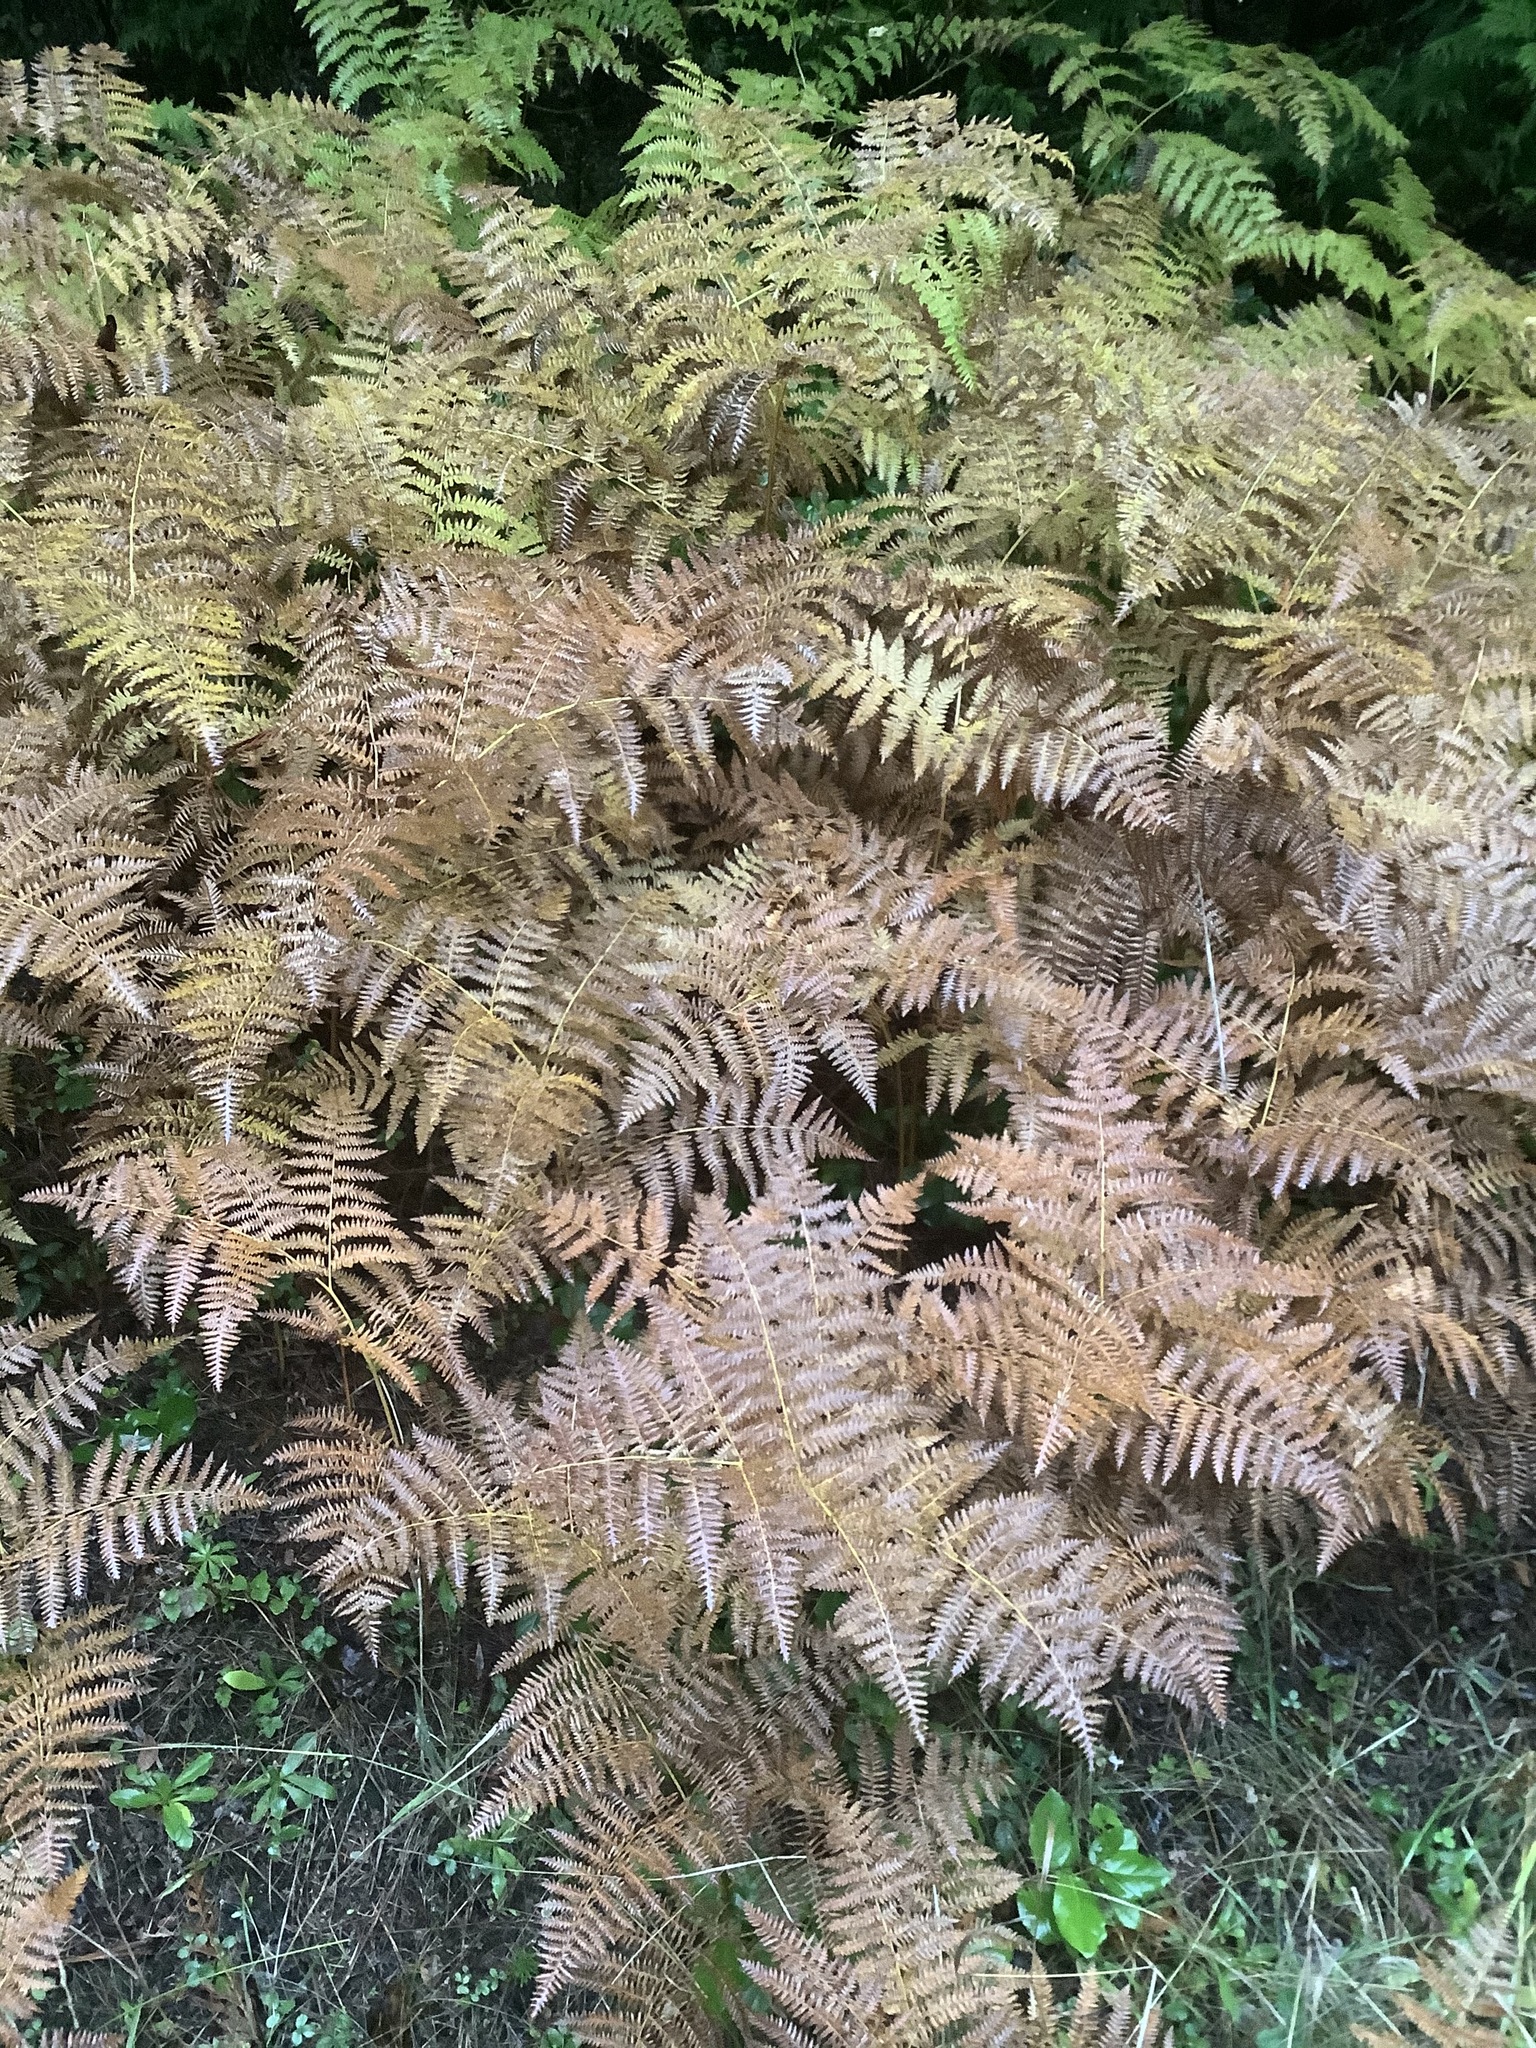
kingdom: Plantae
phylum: Tracheophyta
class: Polypodiopsida
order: Polypodiales
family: Dennstaedtiaceae
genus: Pteridium
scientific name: Pteridium aquilinum
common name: Bracken
